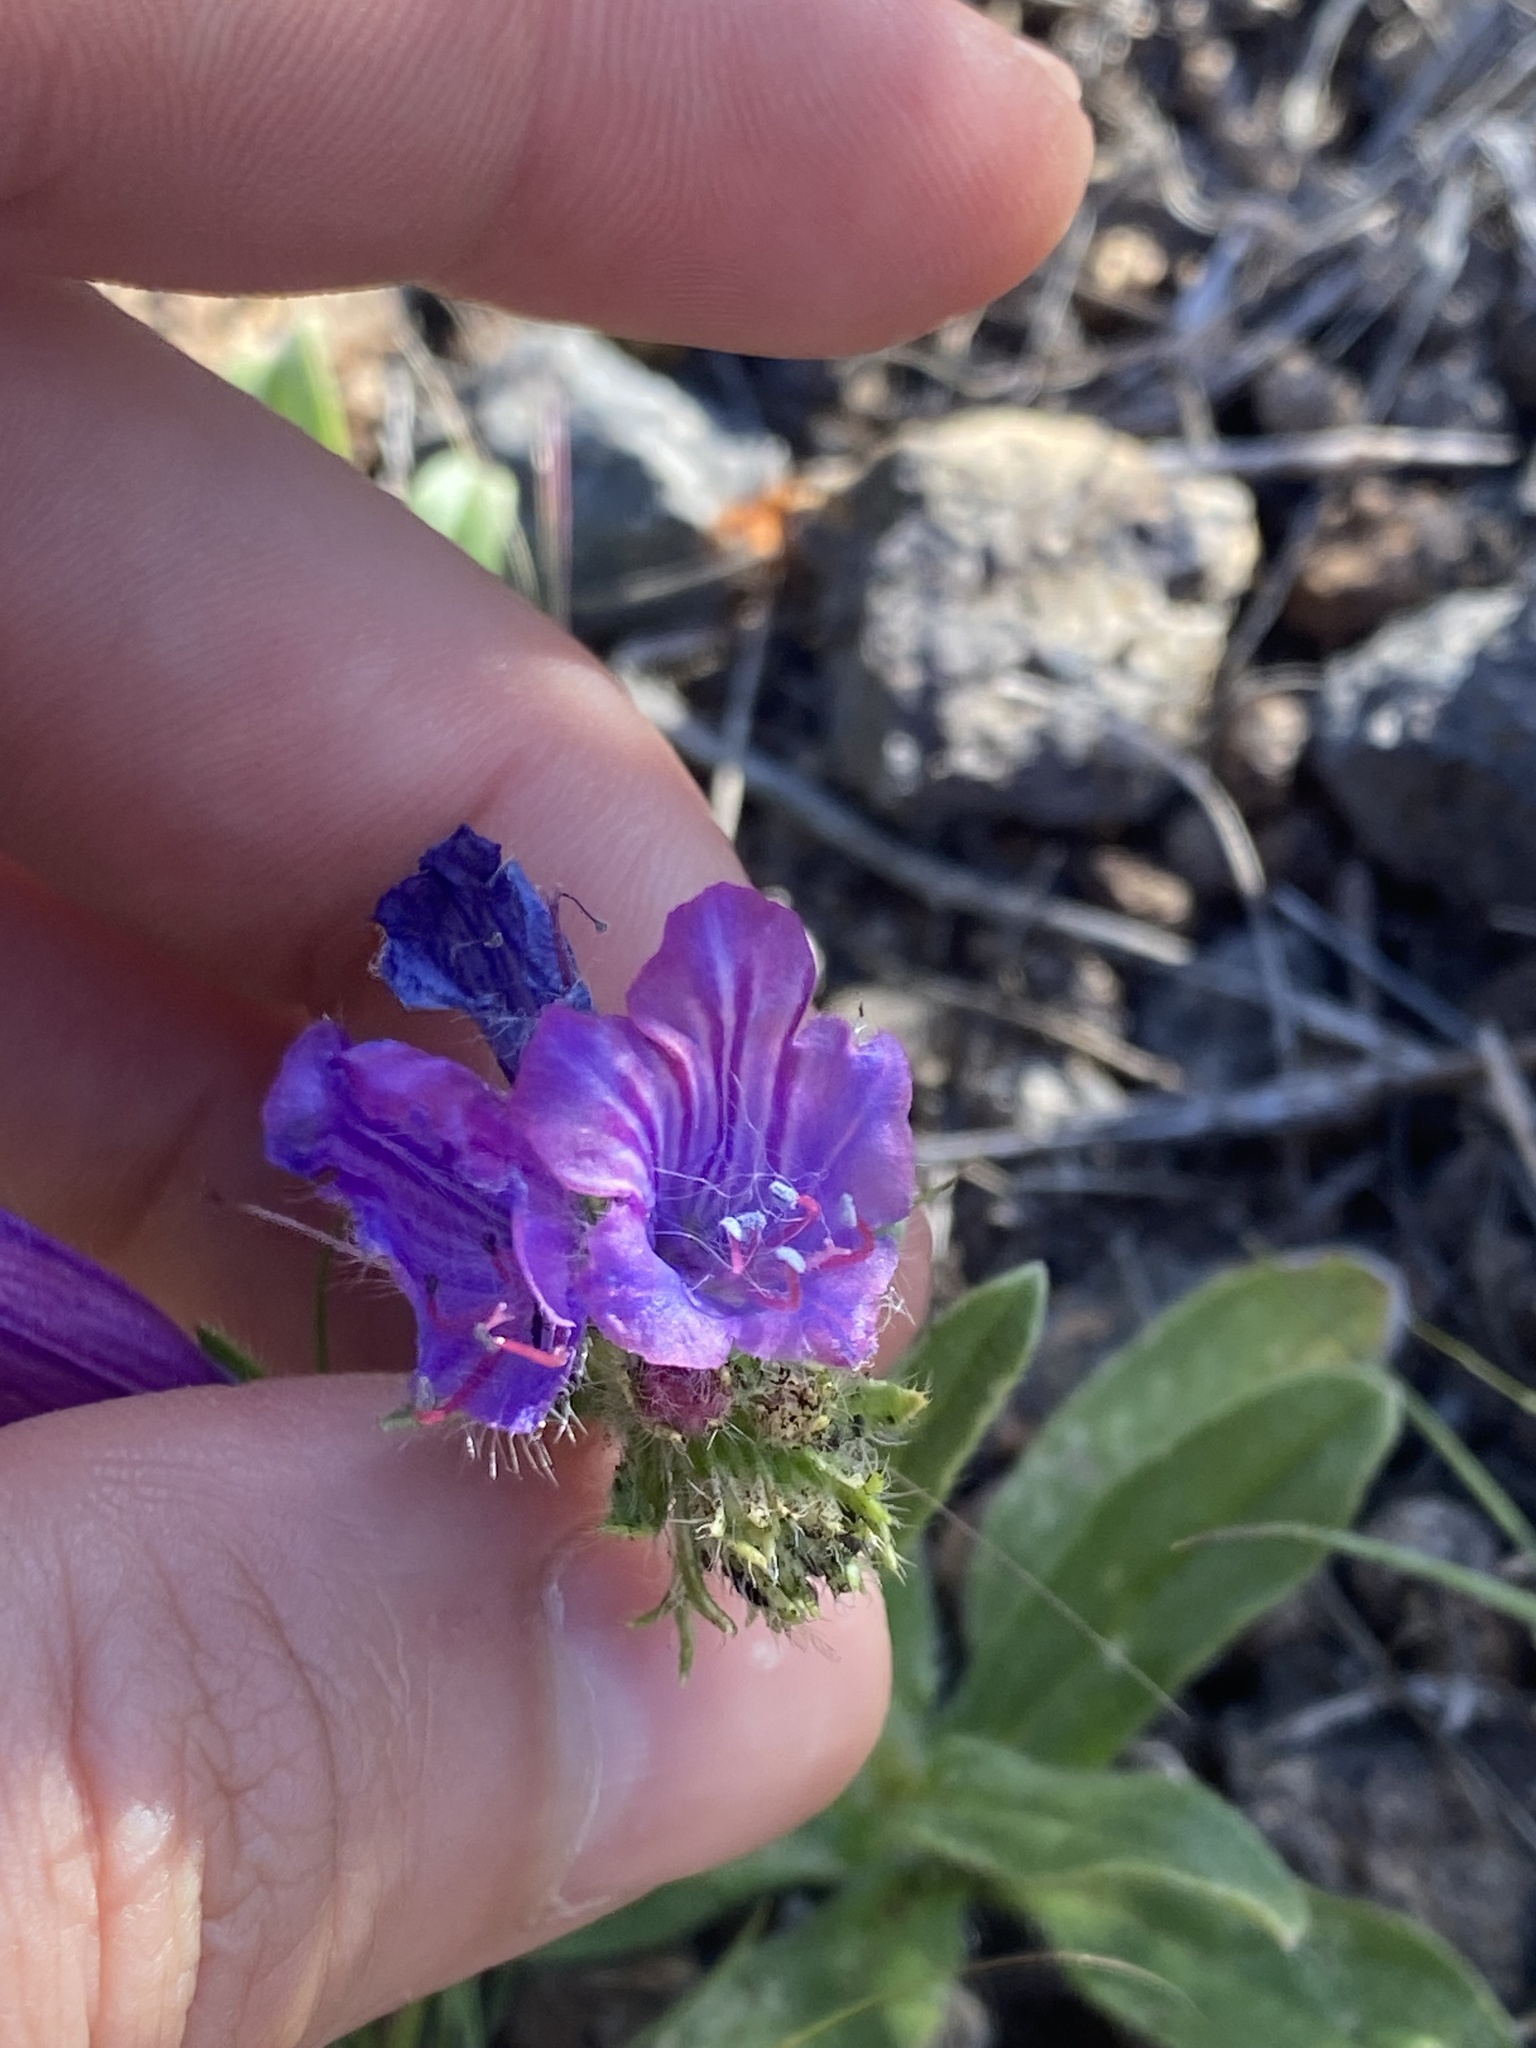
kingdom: Plantae
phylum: Tracheophyta
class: Magnoliopsida
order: Boraginales
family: Boraginaceae
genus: Echium
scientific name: Echium plantagineum
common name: Purple viper's-bugloss
